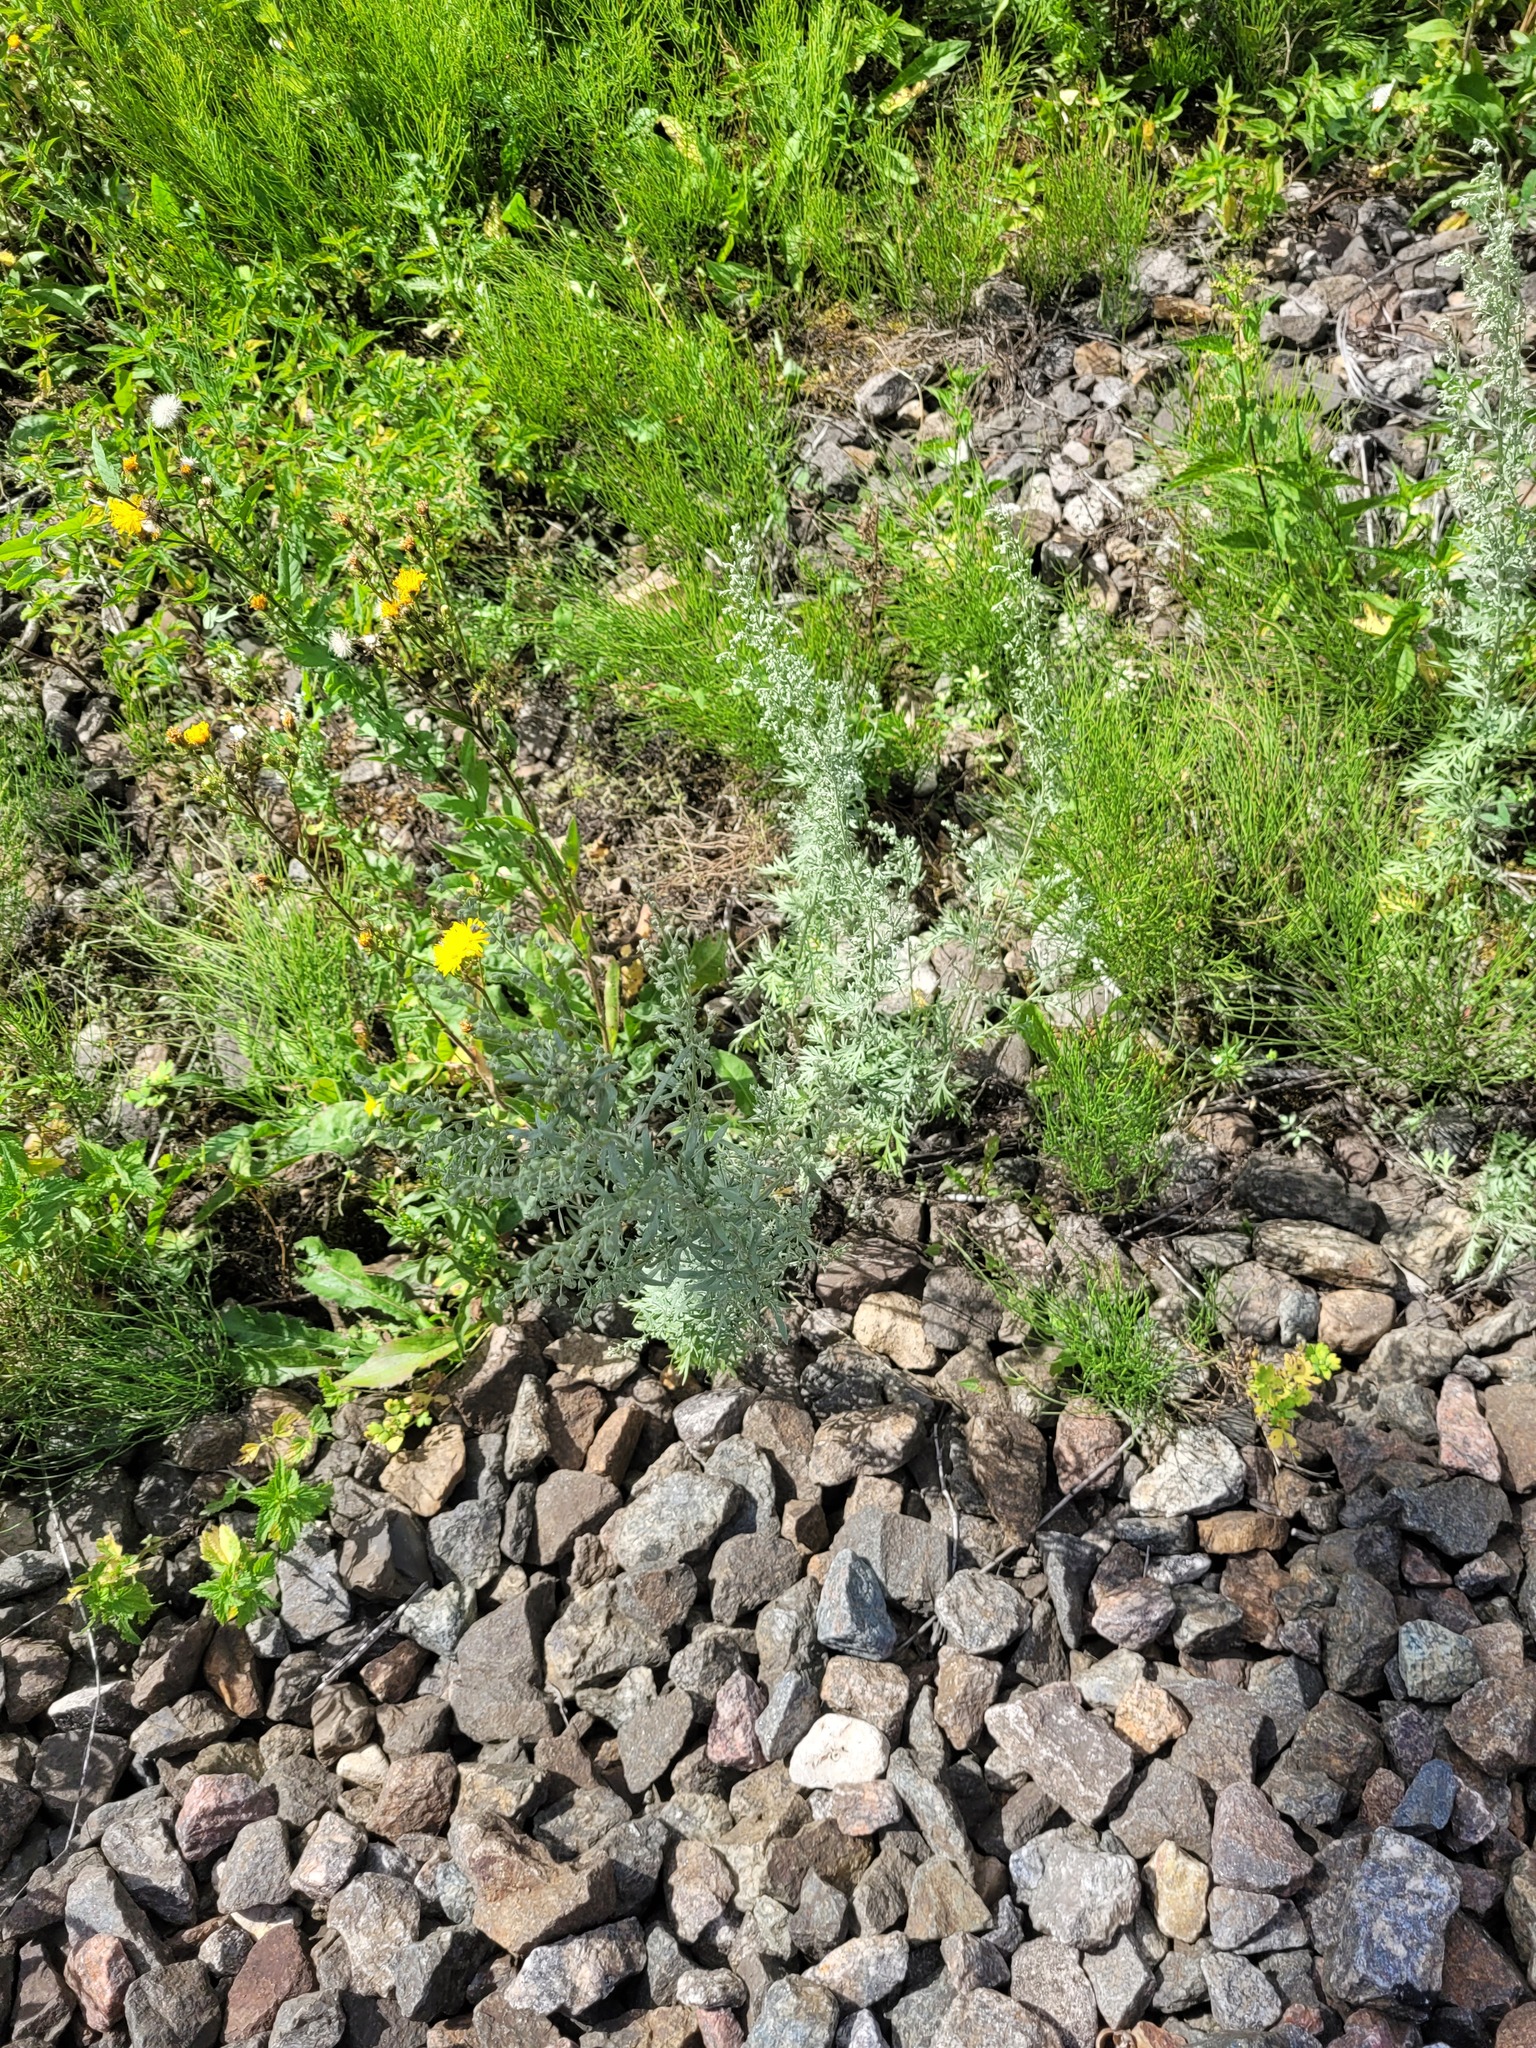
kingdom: Plantae
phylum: Tracheophyta
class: Magnoliopsida
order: Asterales
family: Asteraceae
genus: Artemisia
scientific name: Artemisia absinthium
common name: Wormwood
